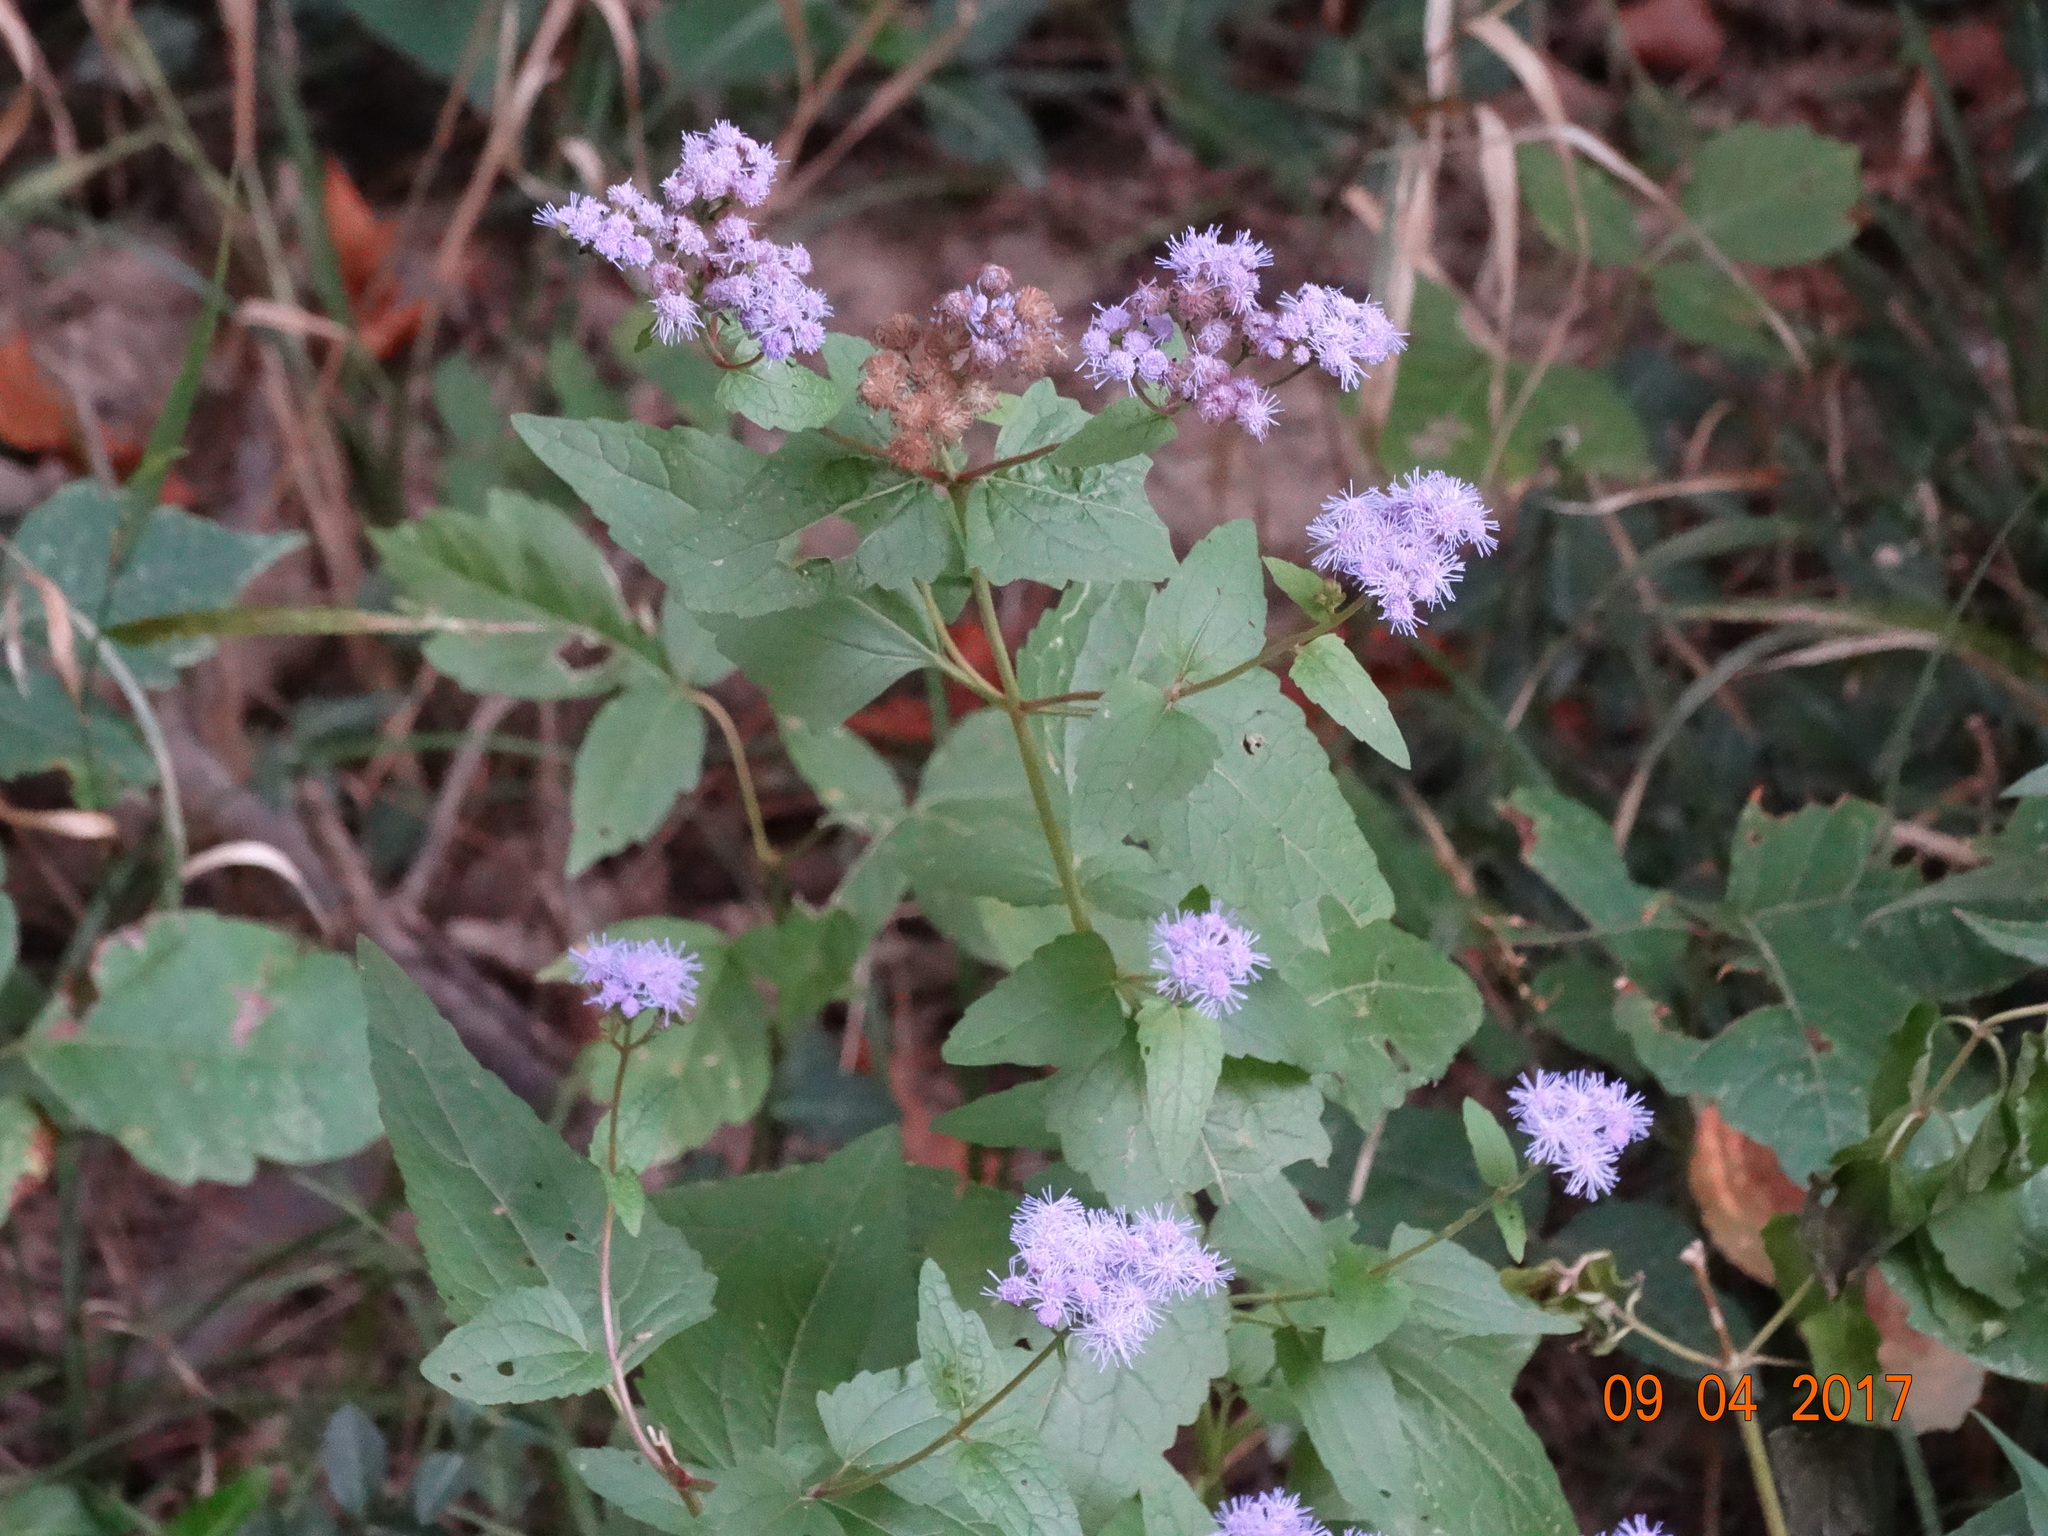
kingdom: Plantae
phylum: Tracheophyta
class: Magnoliopsida
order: Asterales
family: Asteraceae
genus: Conoclinium
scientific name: Conoclinium coelestinum
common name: Blue mistflower
